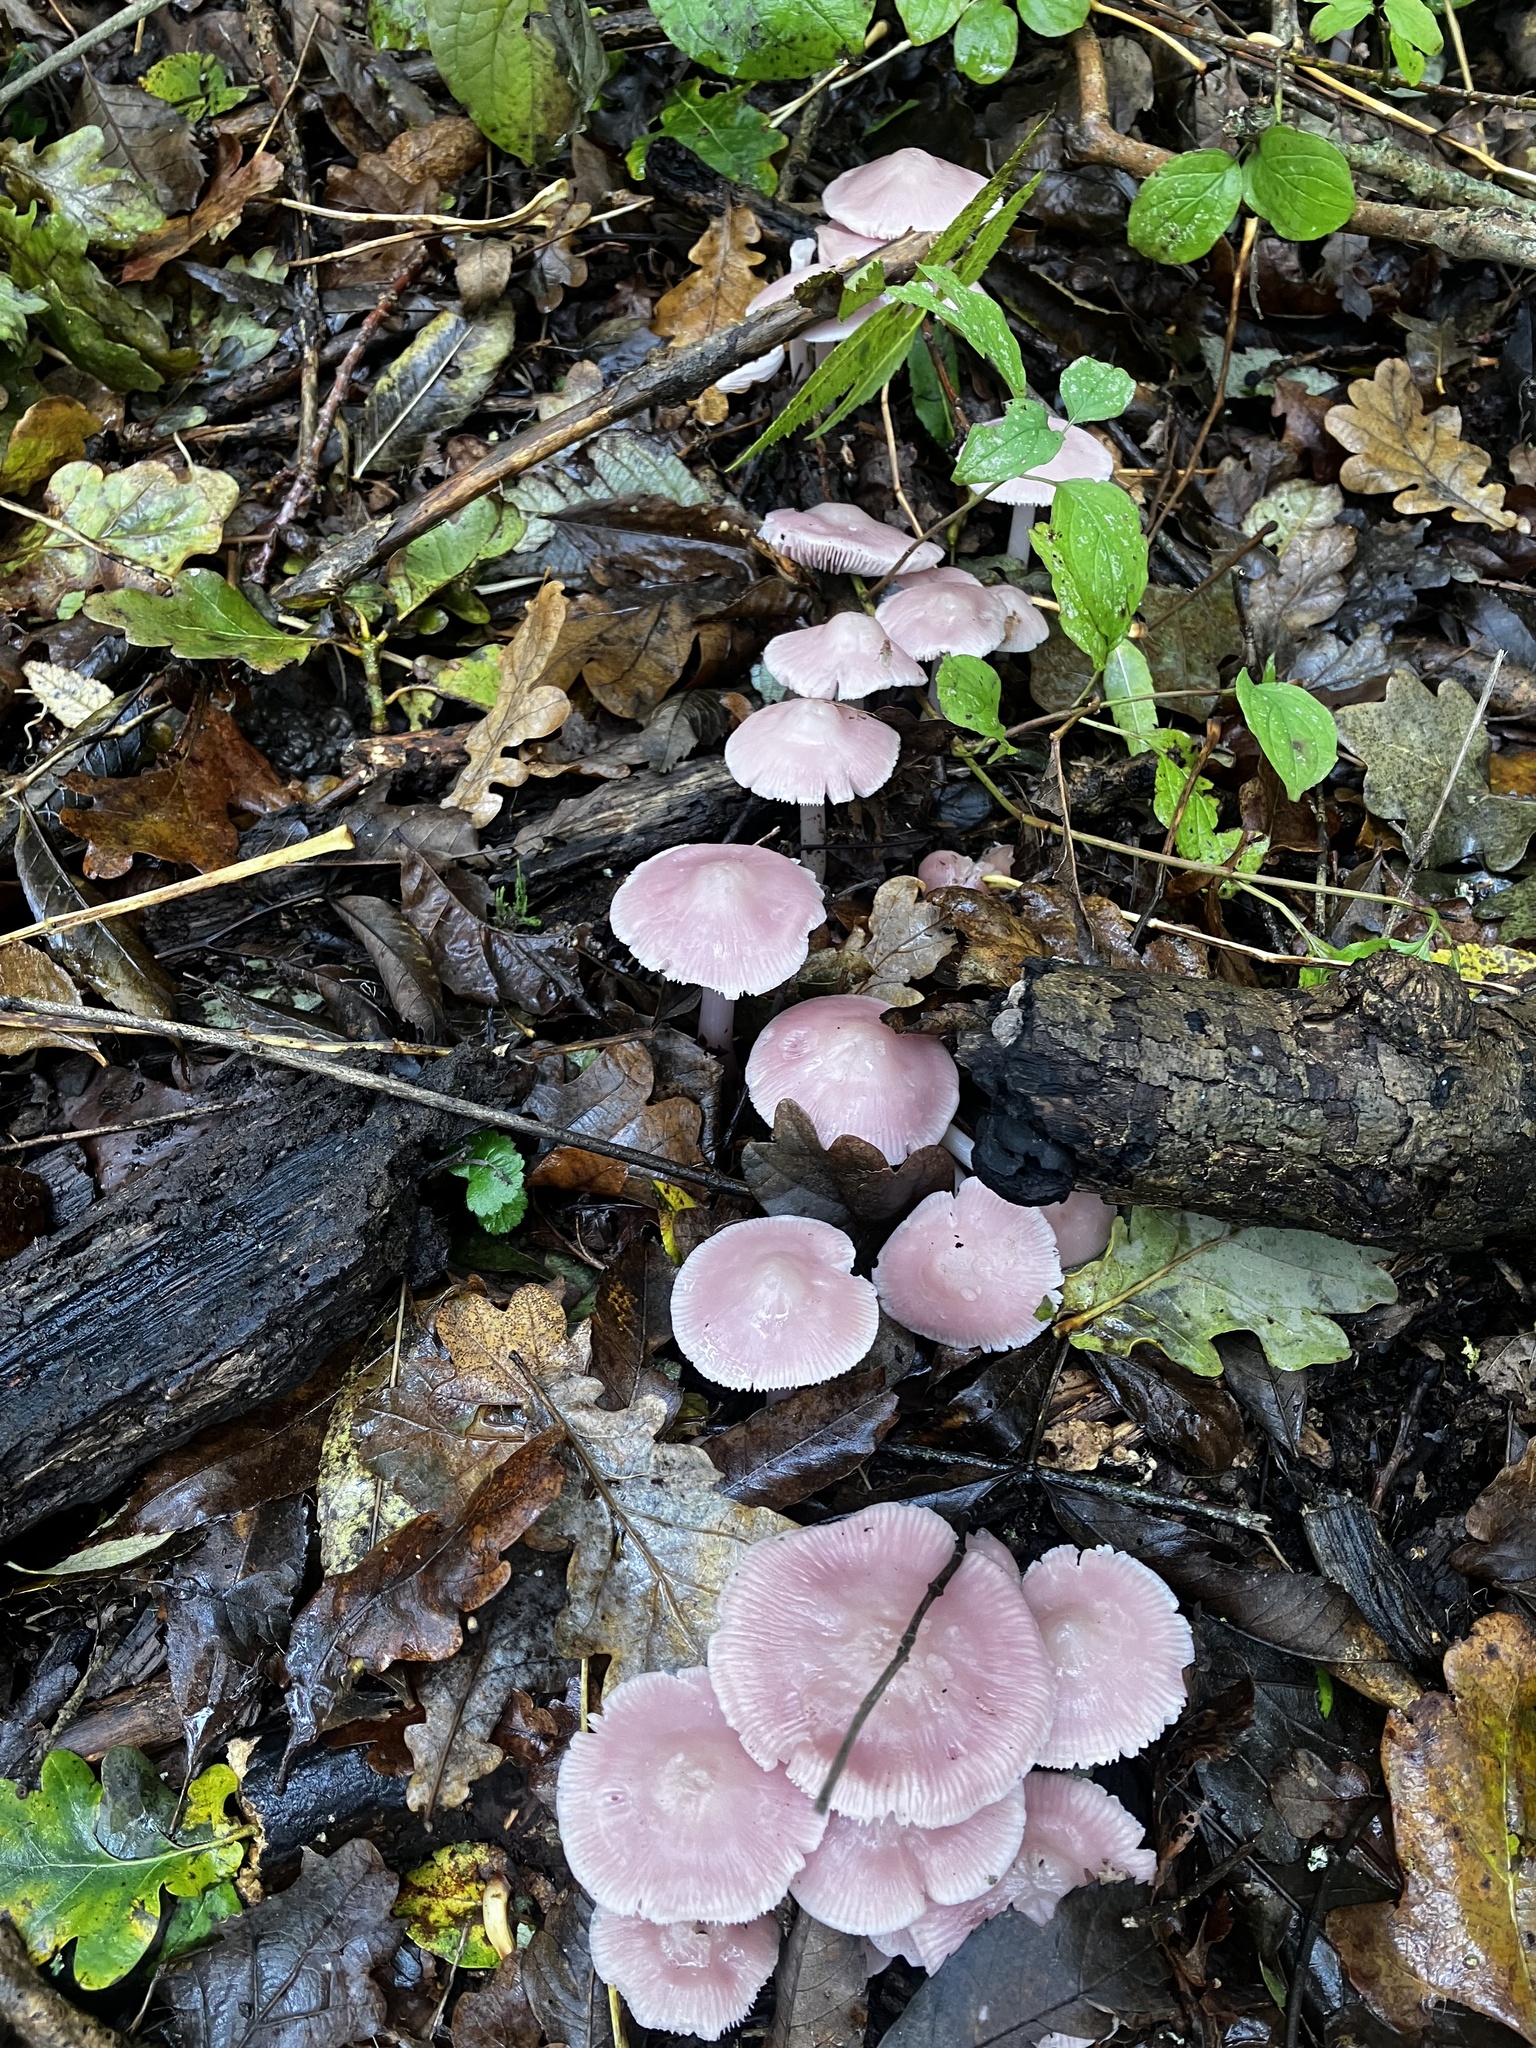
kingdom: Fungi
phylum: Basidiomycota
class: Agaricomycetes
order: Agaricales
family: Mycenaceae
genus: Mycena
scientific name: Mycena rosea
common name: Rosy bonnet
